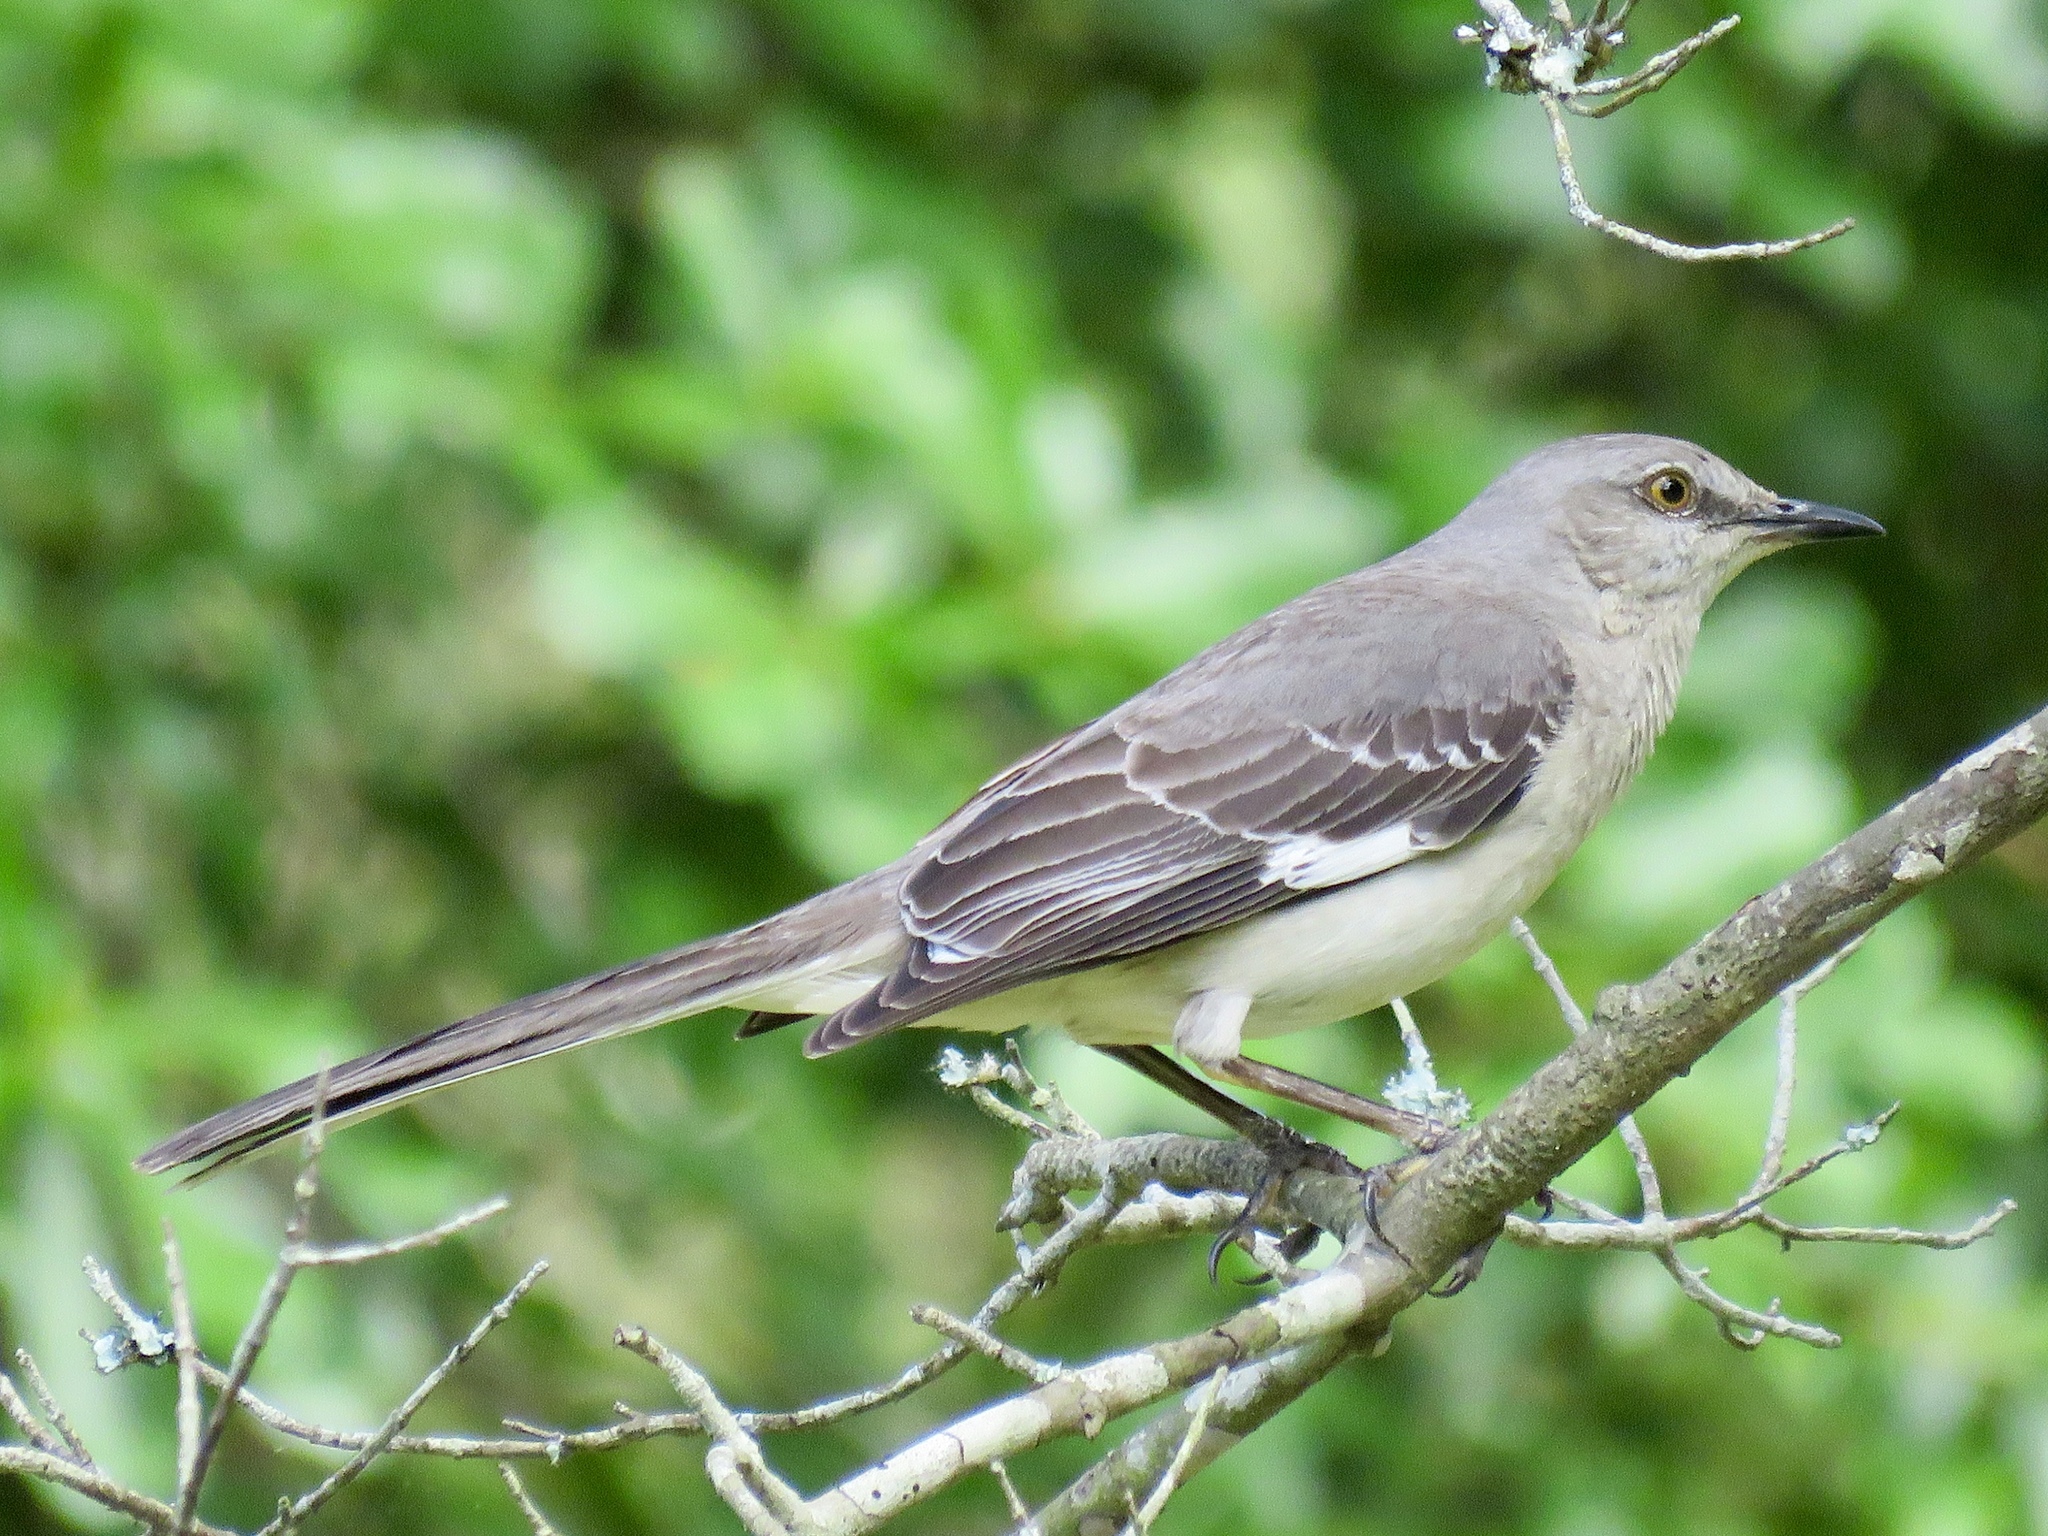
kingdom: Animalia
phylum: Chordata
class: Aves
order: Passeriformes
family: Mimidae
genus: Mimus
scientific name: Mimus polyglottos
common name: Northern mockingbird
